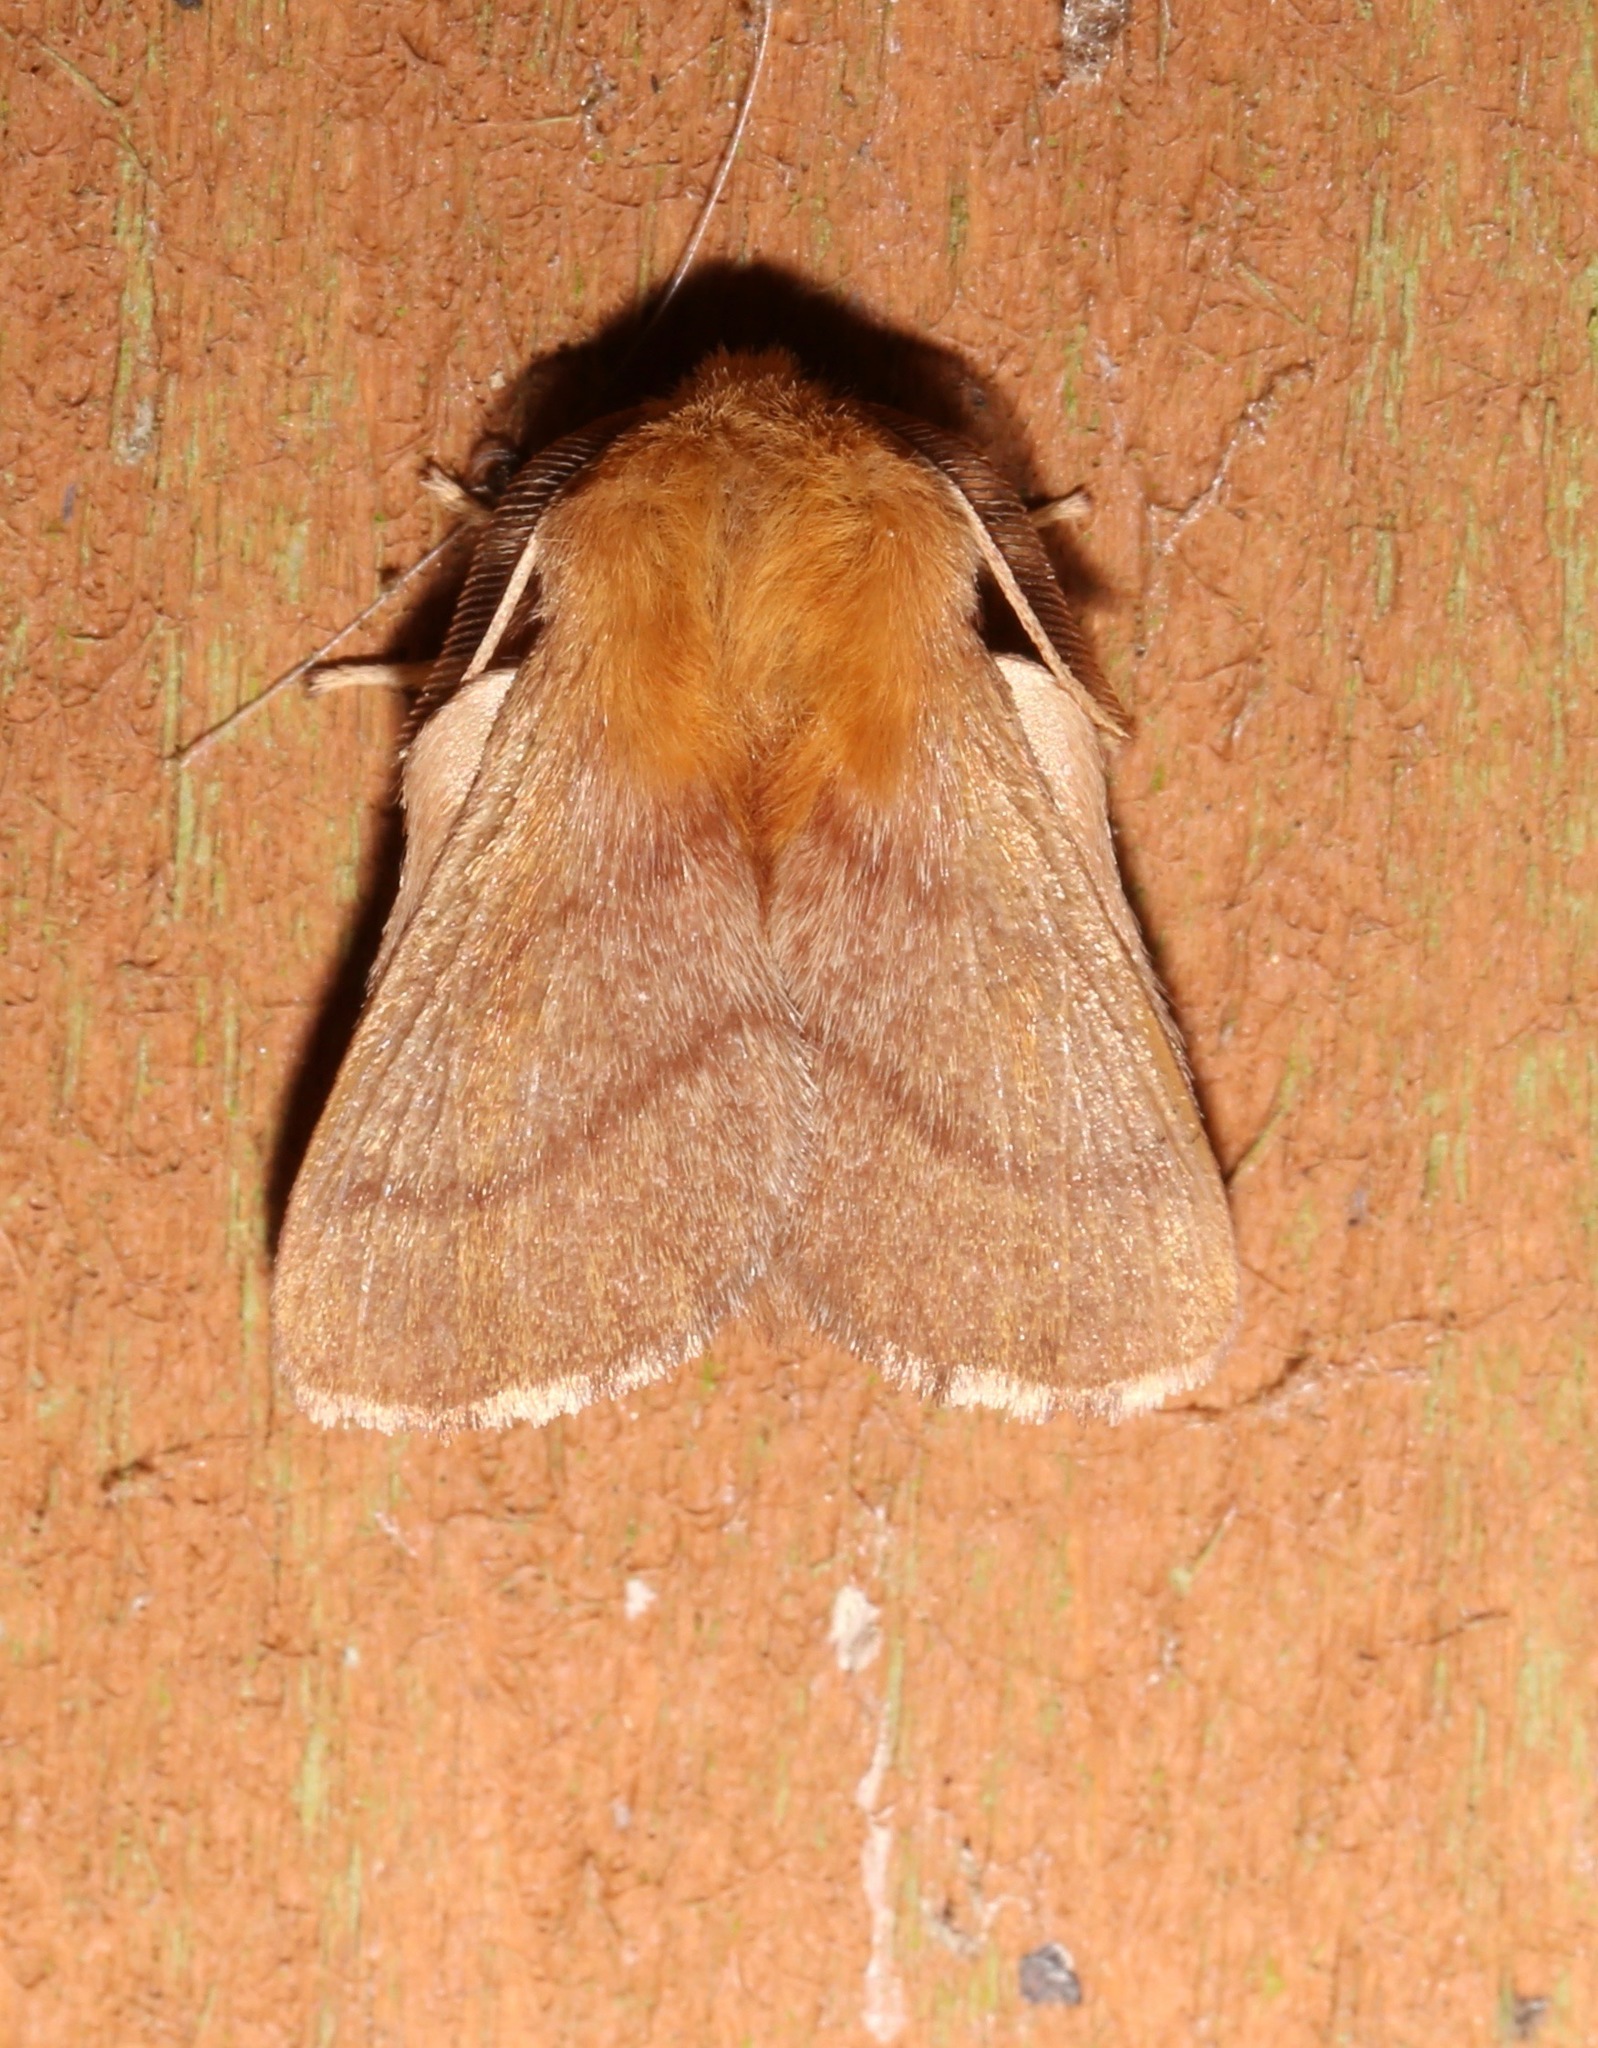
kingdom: Animalia
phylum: Arthropoda
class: Insecta
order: Lepidoptera
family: Lasiocampidae
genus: Malacosoma
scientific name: Malacosoma disstria
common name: Forest tent caterpillar
